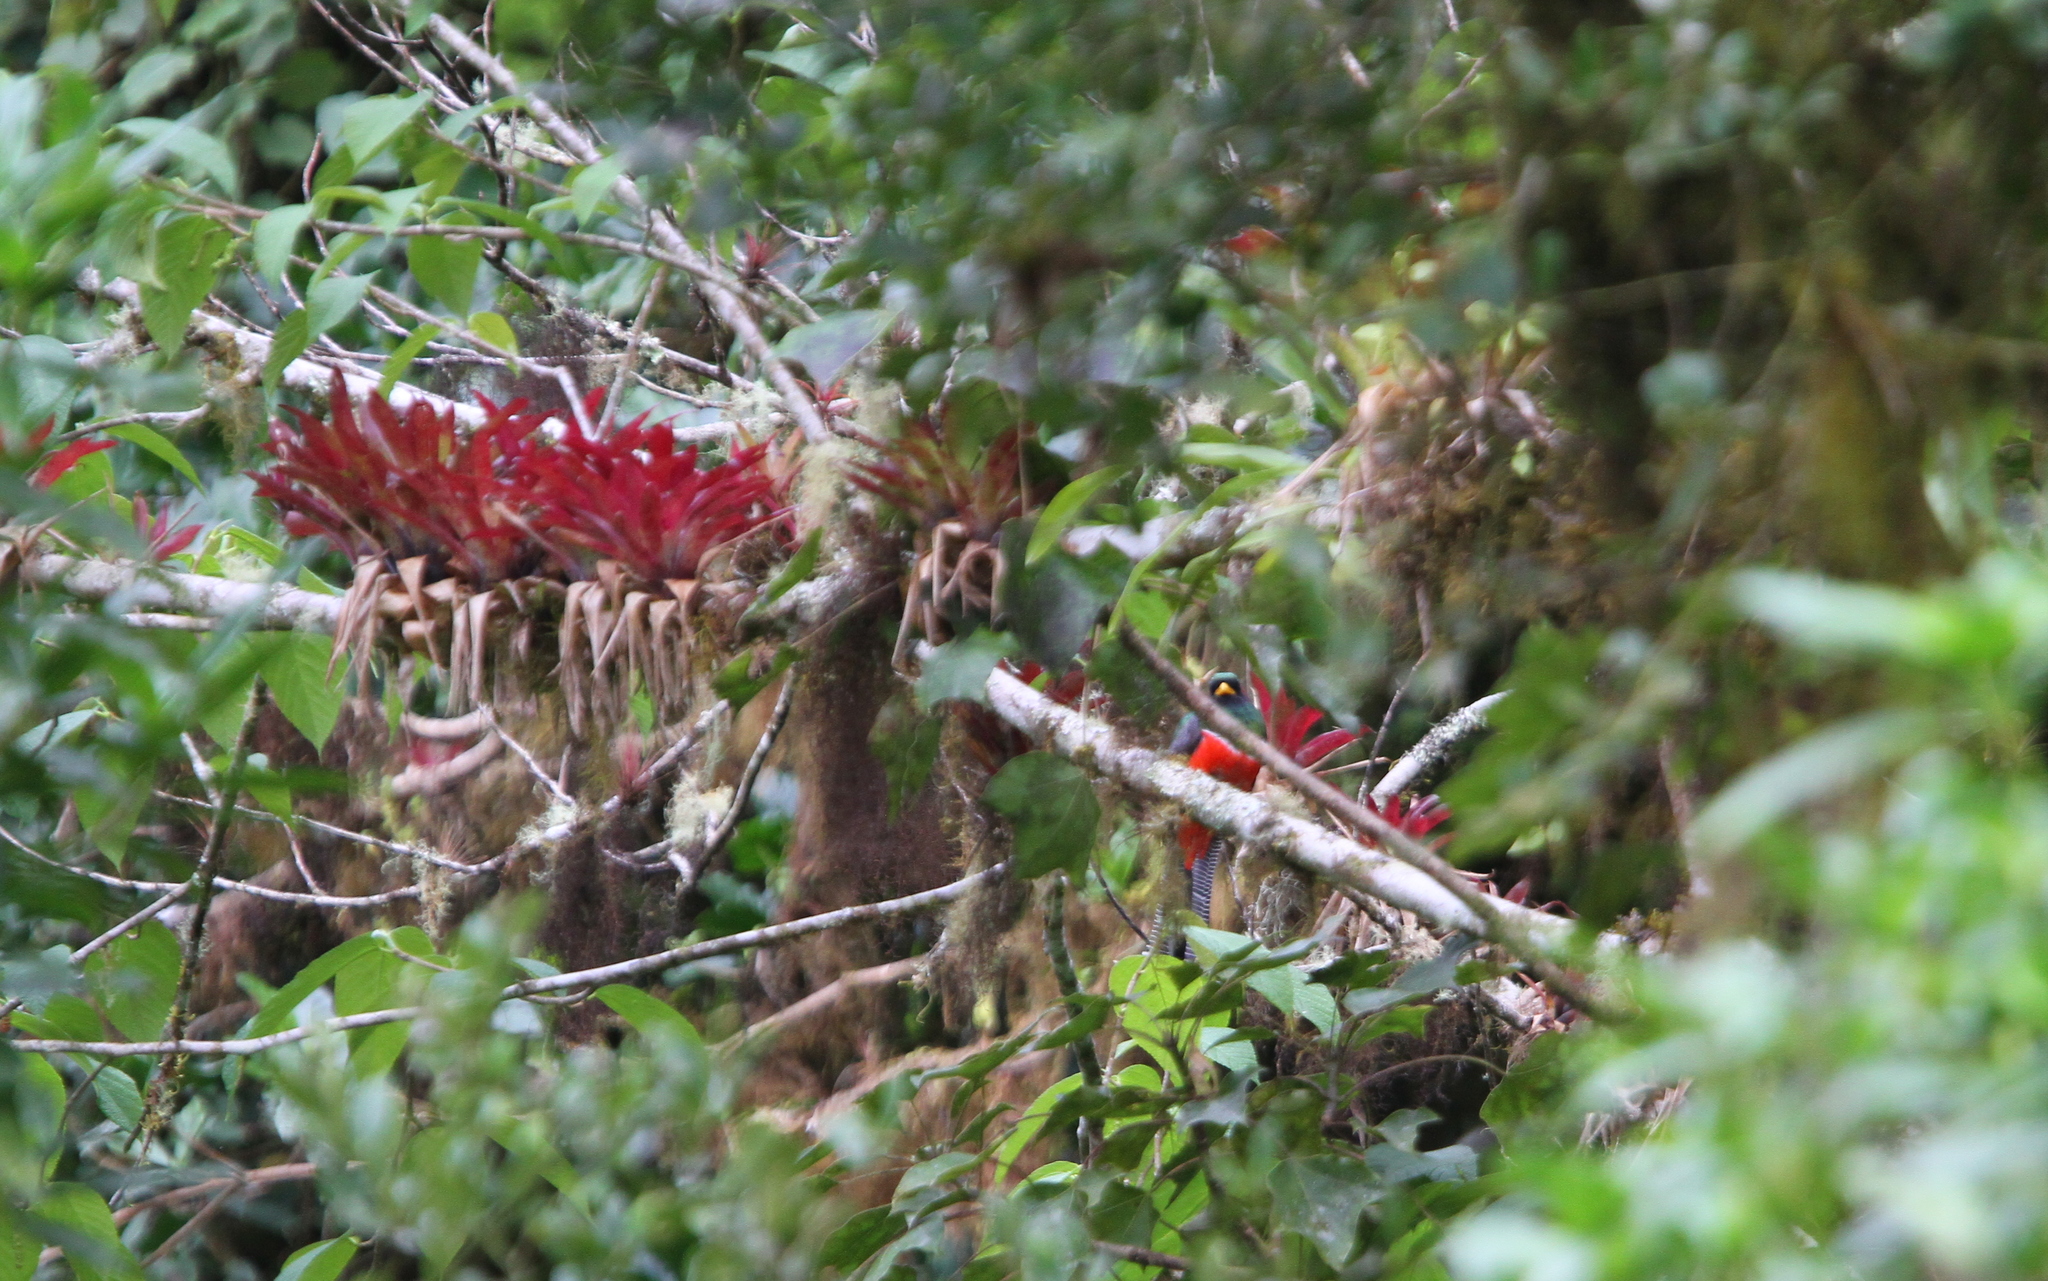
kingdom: Animalia
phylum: Chordata
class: Aves
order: Trogoniformes
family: Trogonidae
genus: Trogon
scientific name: Trogon collaris
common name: Collared trogon
